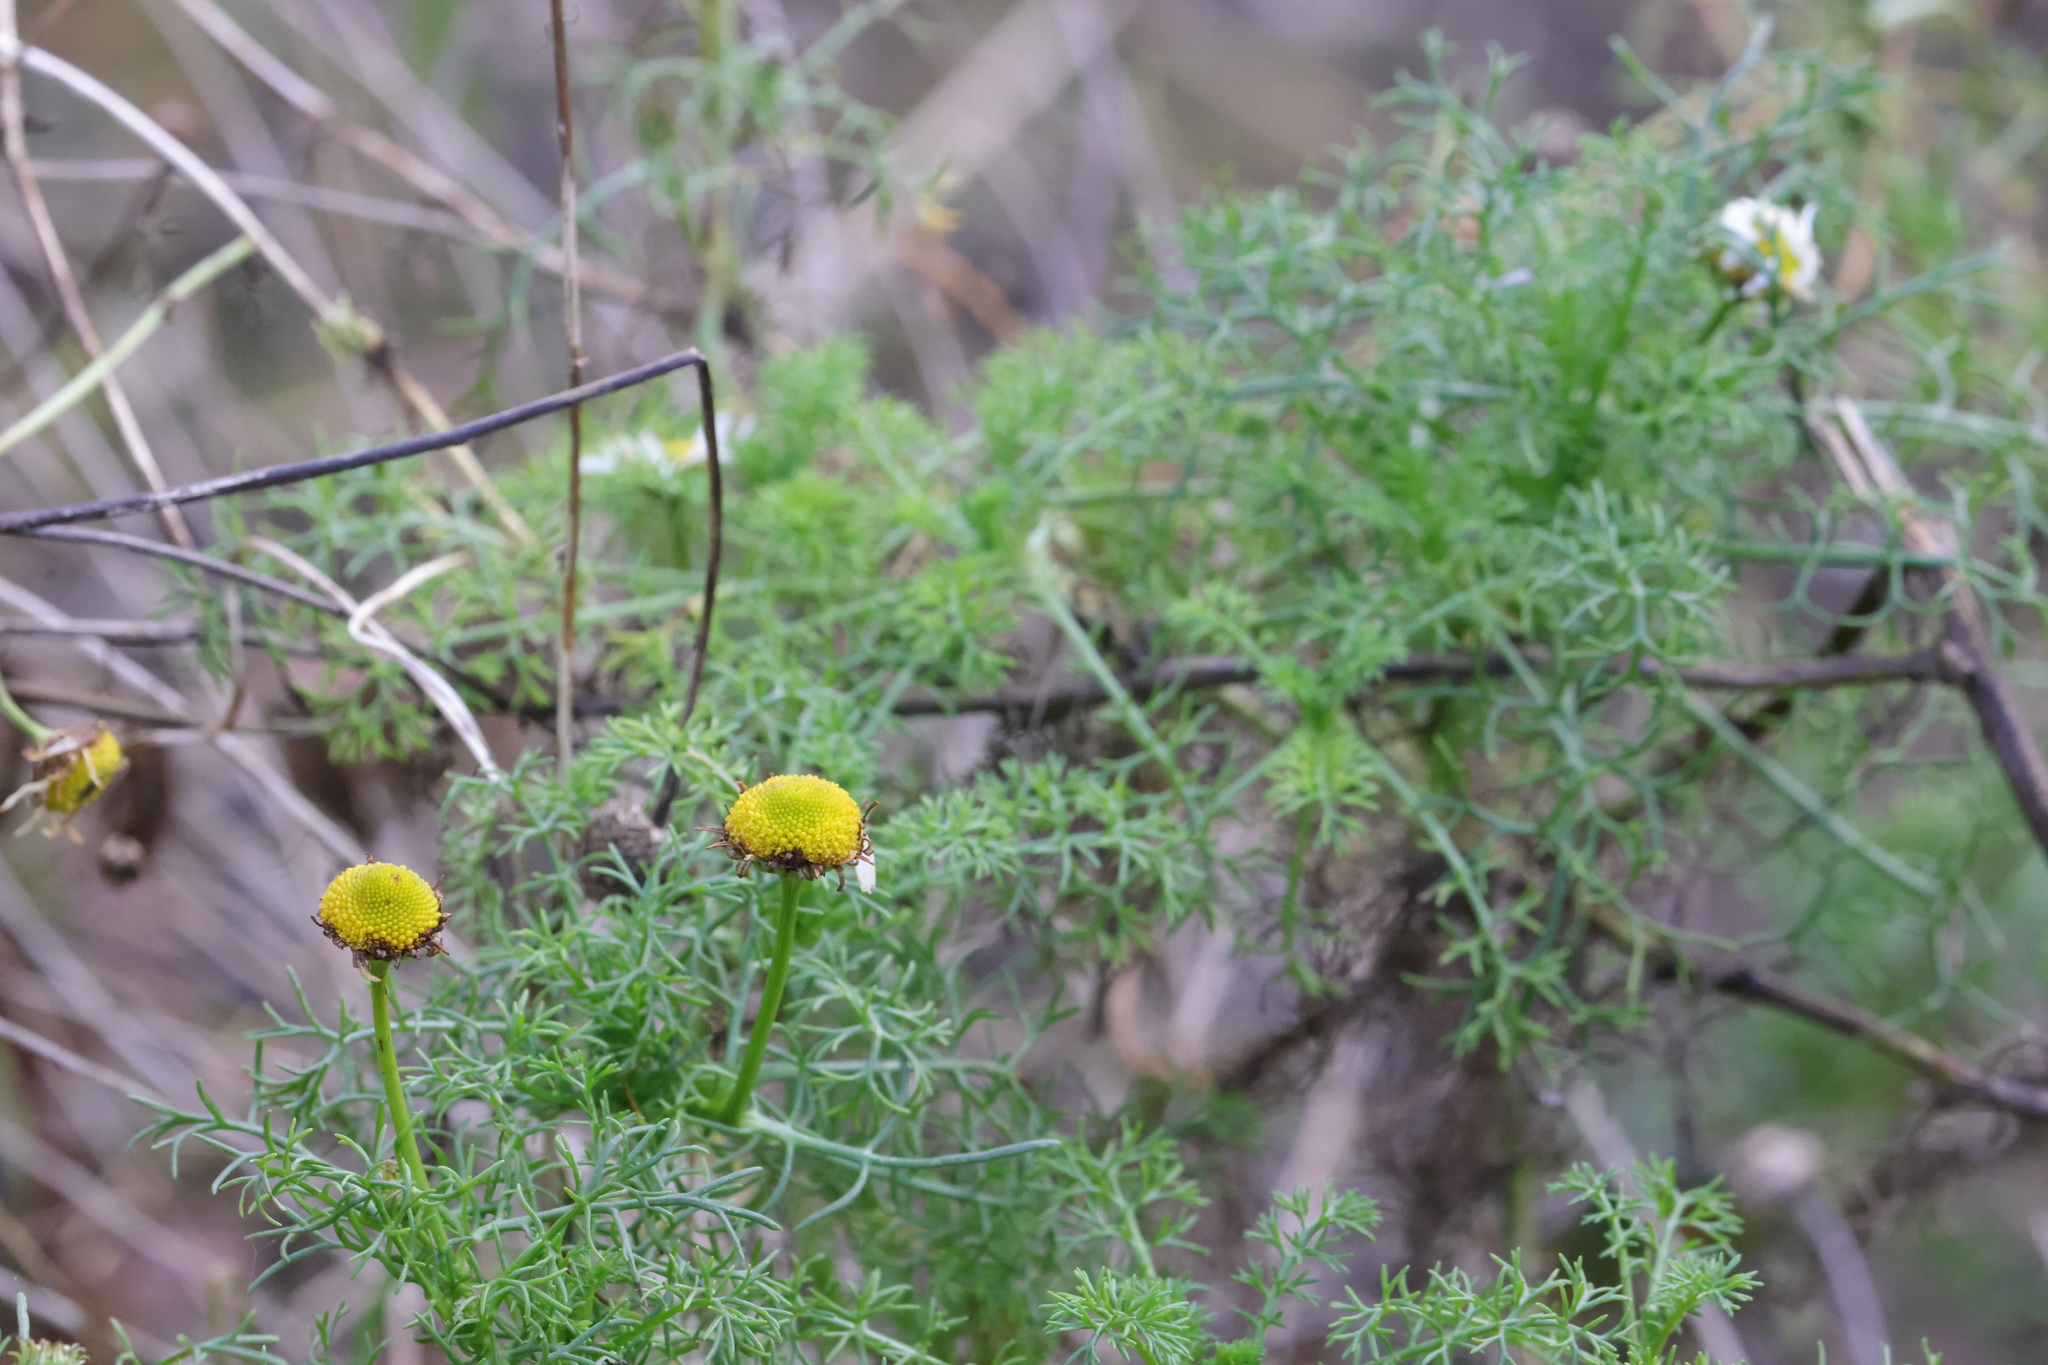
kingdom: Plantae
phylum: Tracheophyta
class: Magnoliopsida
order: Asterales
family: Asteraceae
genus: Tripleurospermum
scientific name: Tripleurospermum maritimum
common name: Sea mayweed
